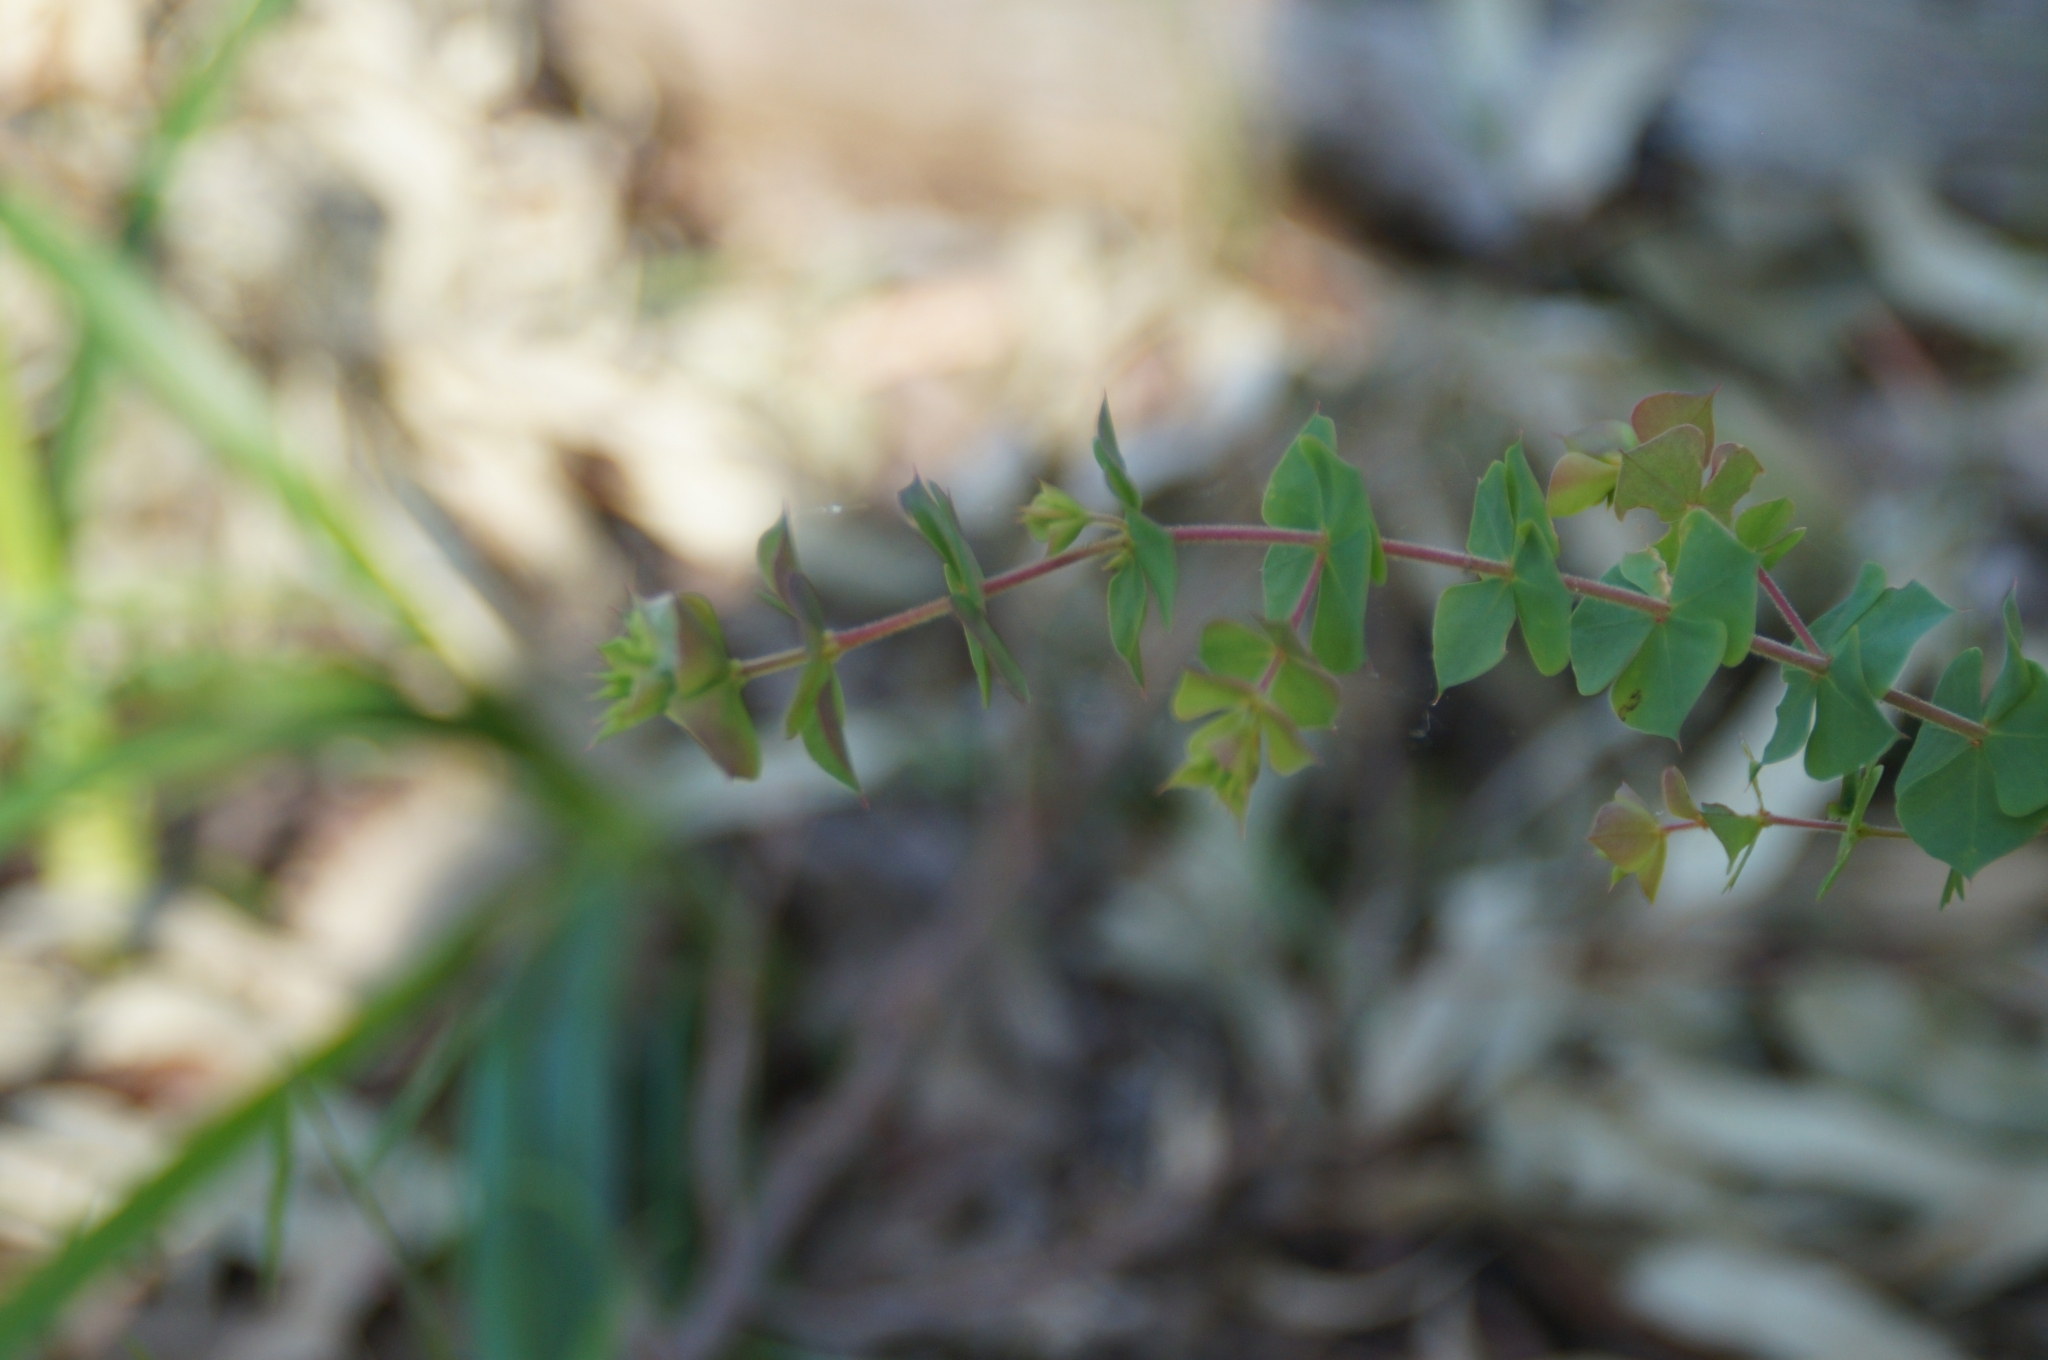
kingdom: Plantae
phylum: Tracheophyta
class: Magnoliopsida
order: Fabales
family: Fabaceae
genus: Pultenaea
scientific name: Pultenaea spinosa
